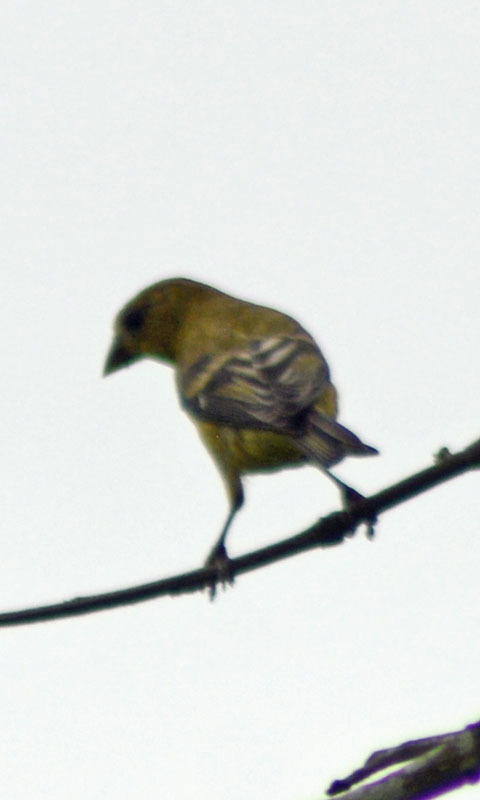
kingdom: Animalia
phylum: Chordata
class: Aves
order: Passeriformes
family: Fringillidae
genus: Spinus
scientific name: Spinus psaltria
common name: Lesser goldfinch
